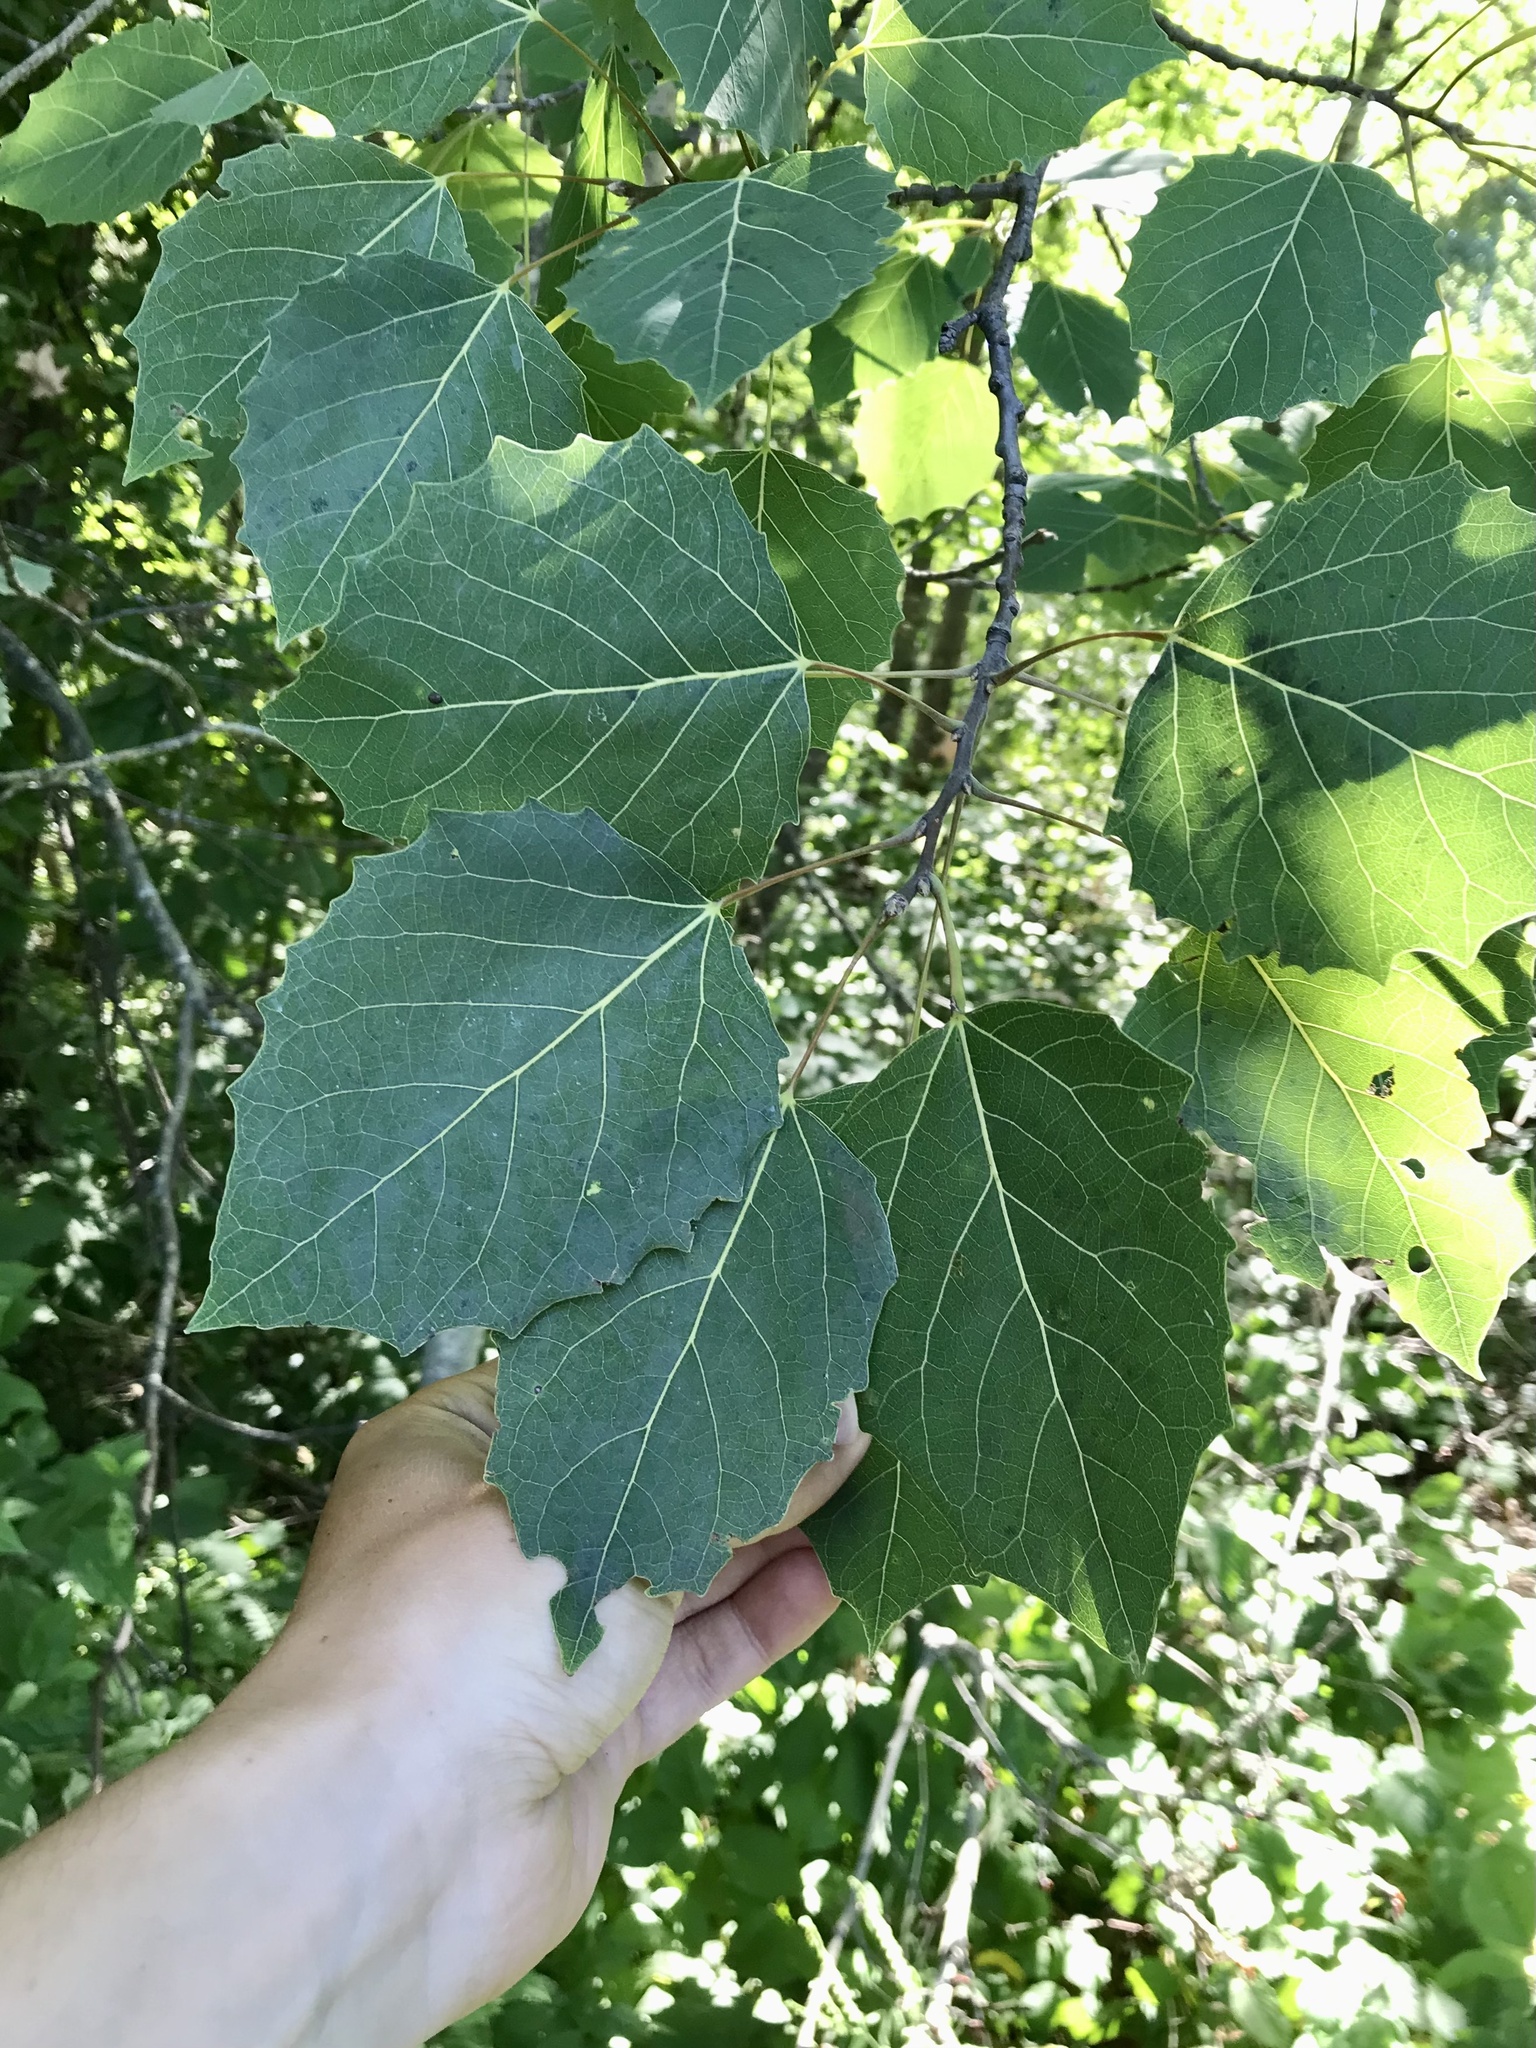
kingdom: Plantae
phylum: Tracheophyta
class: Magnoliopsida
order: Malpighiales
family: Salicaceae
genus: Populus
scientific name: Populus grandidentata
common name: Bigtooth aspen
